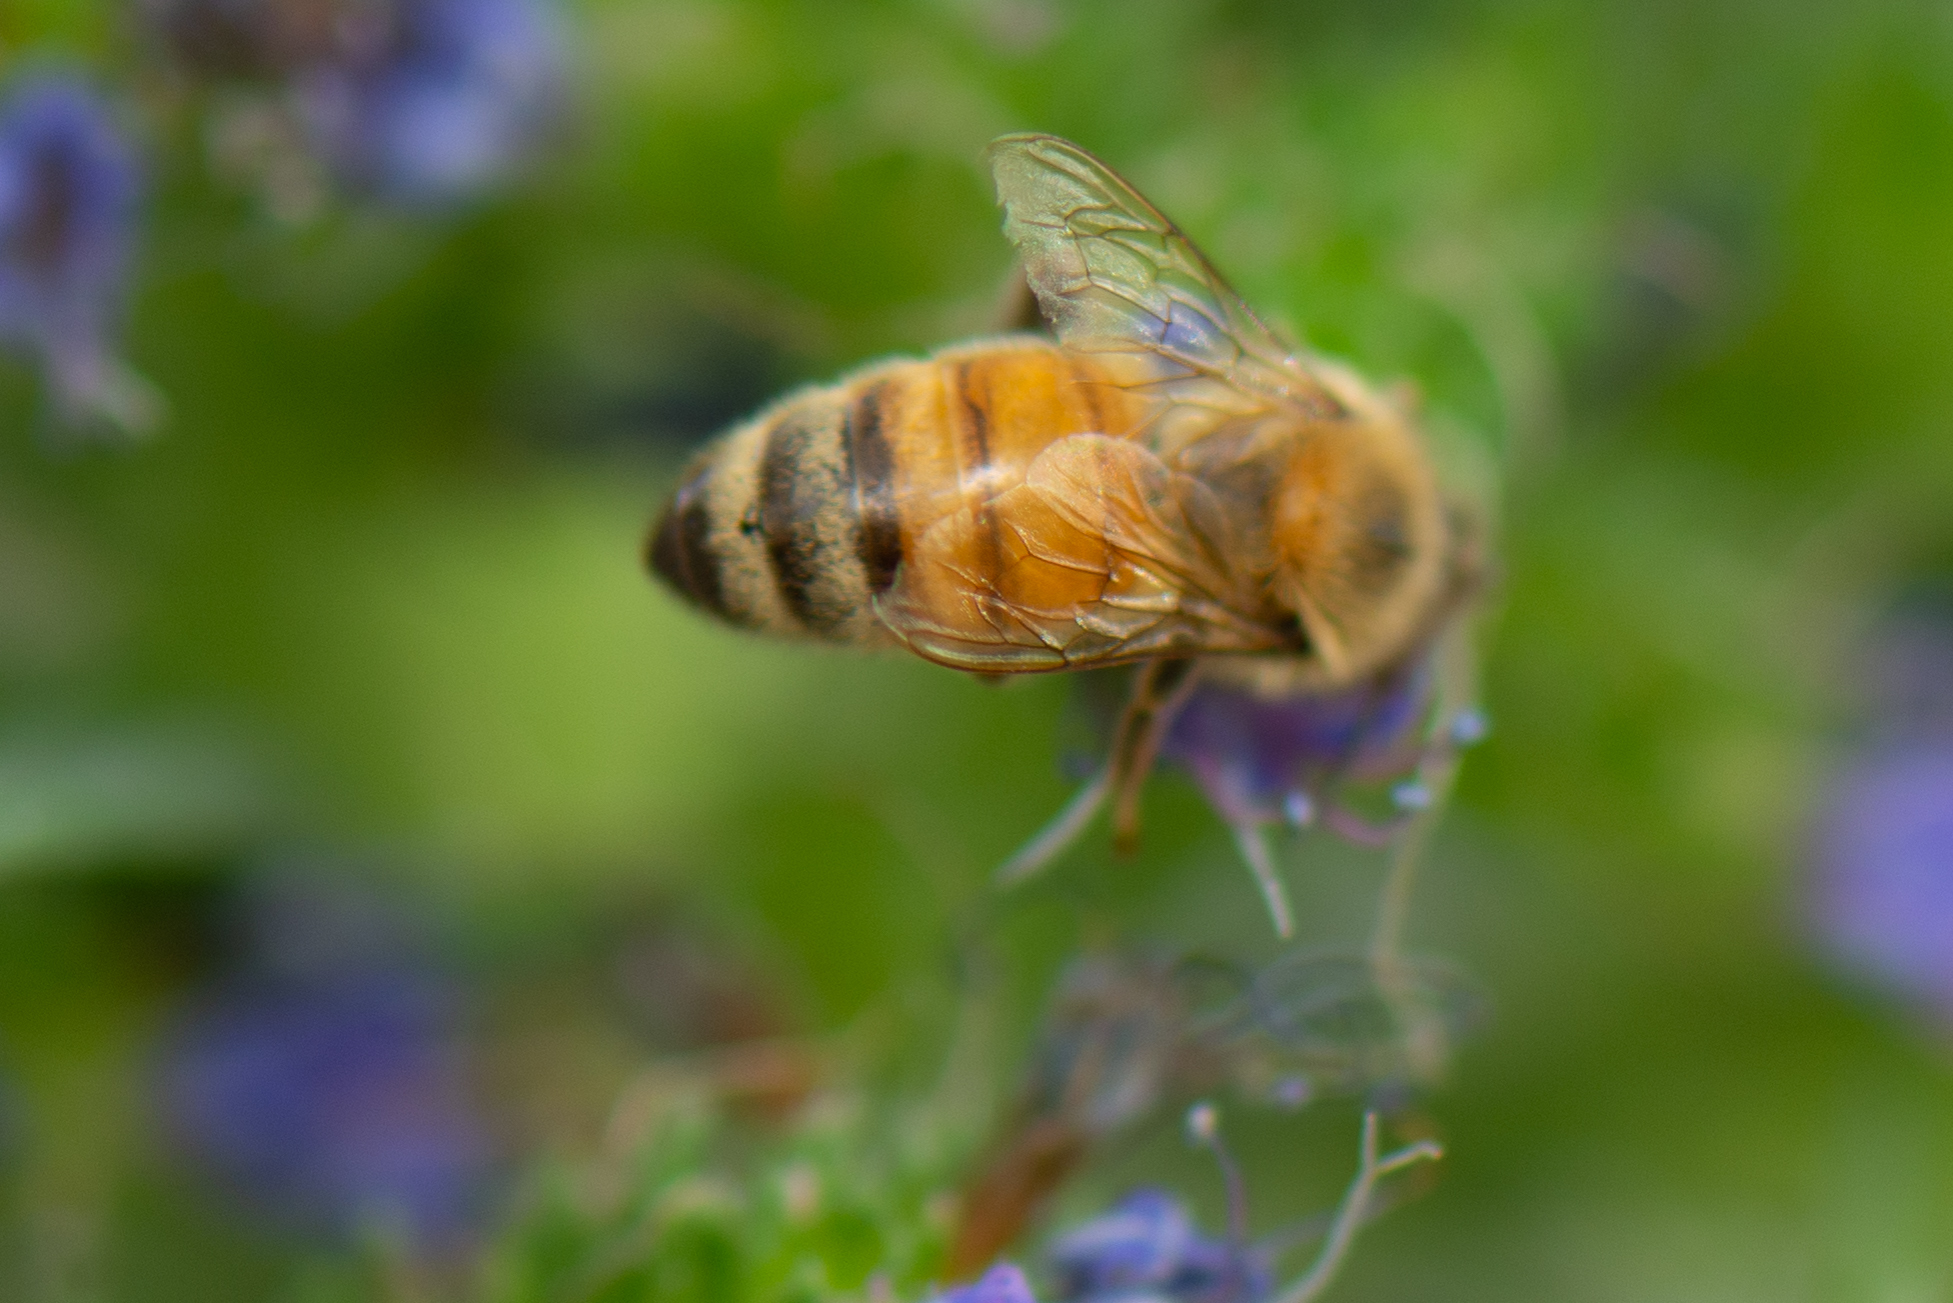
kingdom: Animalia
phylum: Arthropoda
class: Insecta
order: Hymenoptera
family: Apidae
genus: Apis
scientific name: Apis mellifera
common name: Honey bee
